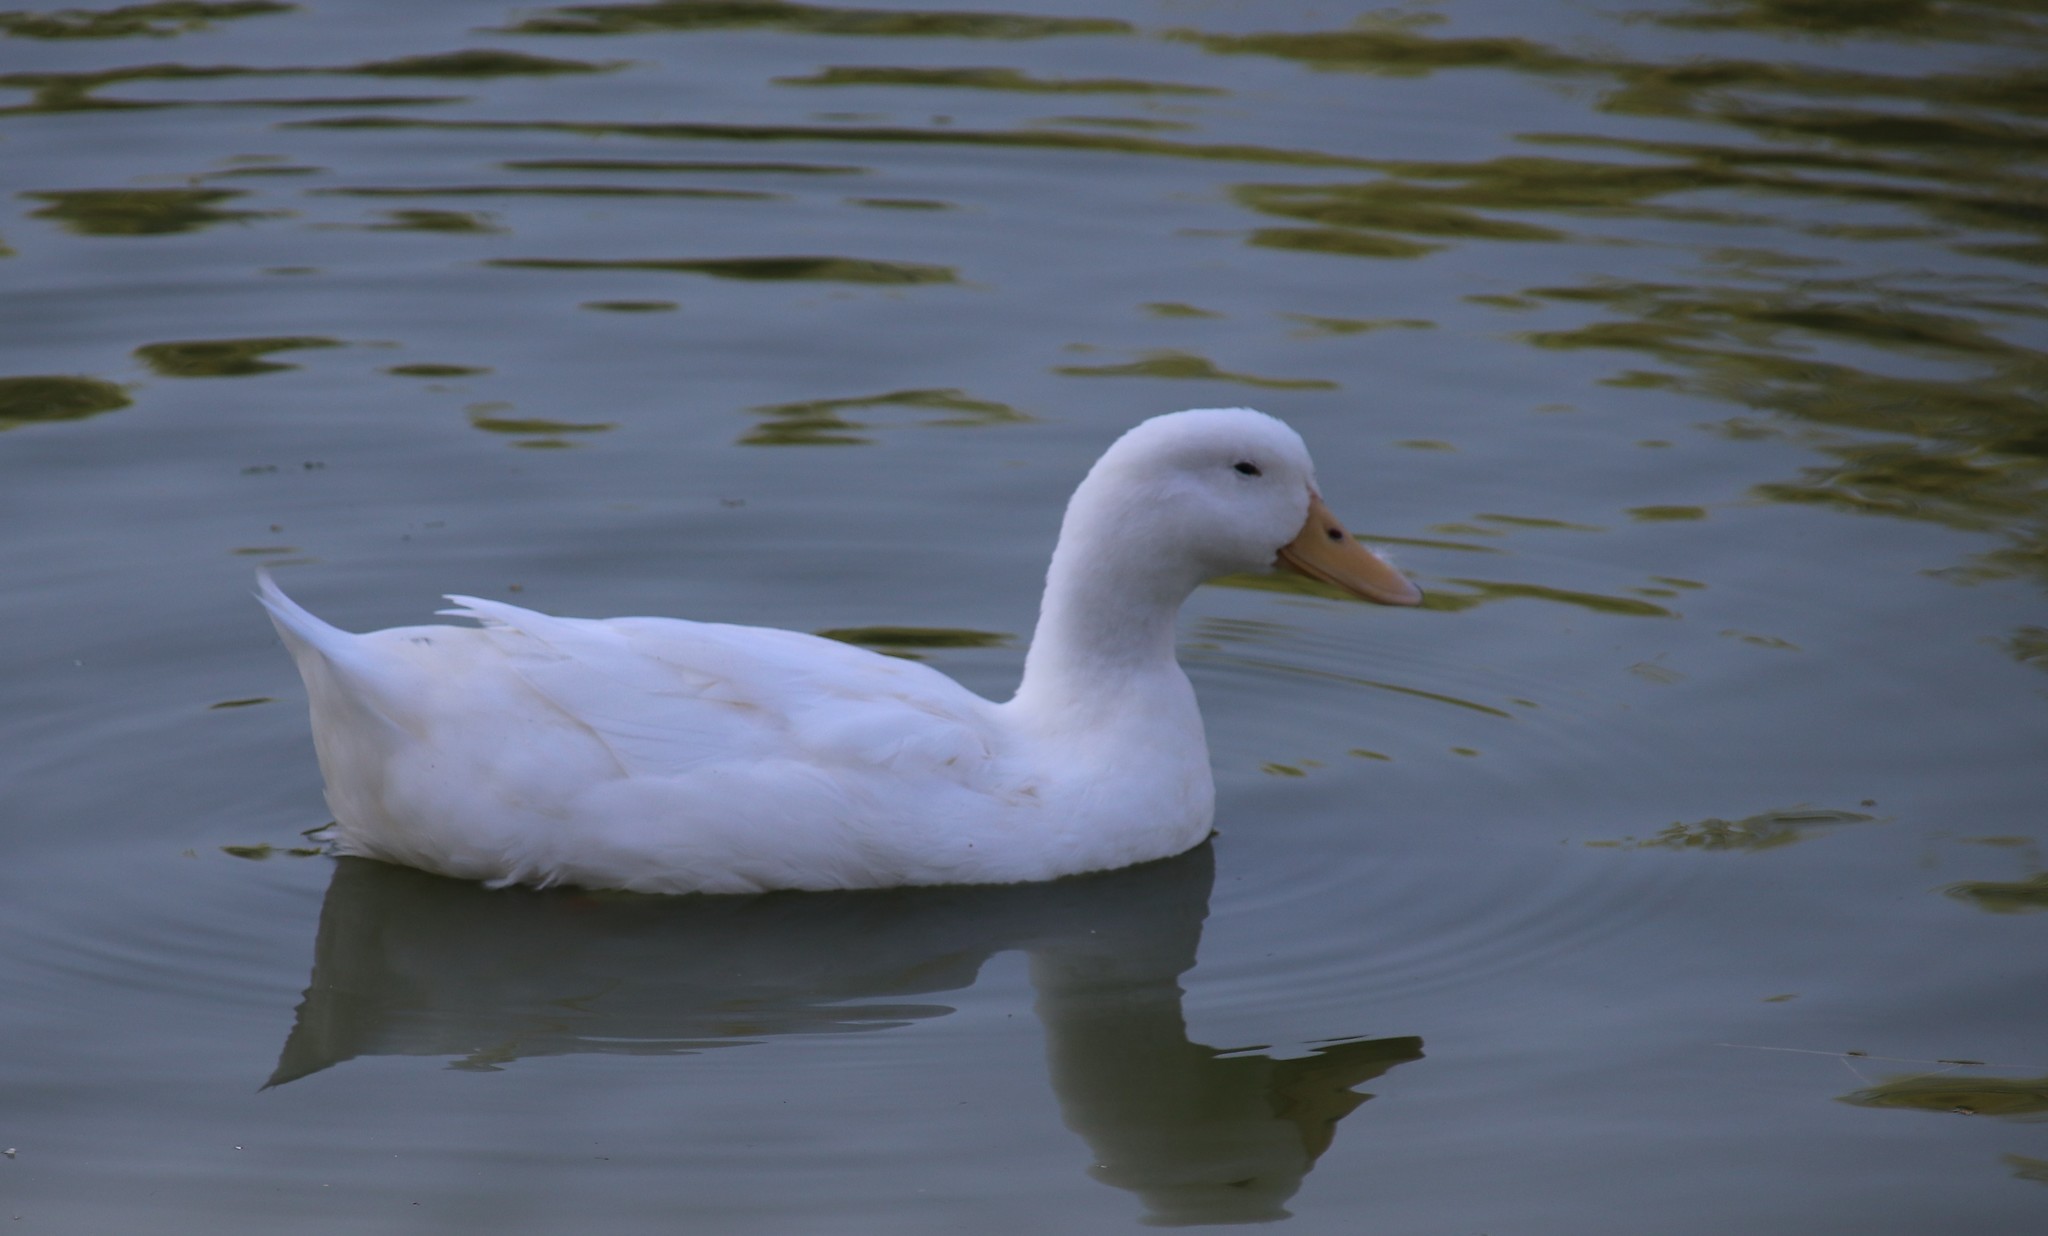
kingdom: Animalia
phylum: Chordata
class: Aves
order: Anseriformes
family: Anatidae
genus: Anas
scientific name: Anas platyrhynchos
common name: Mallard
